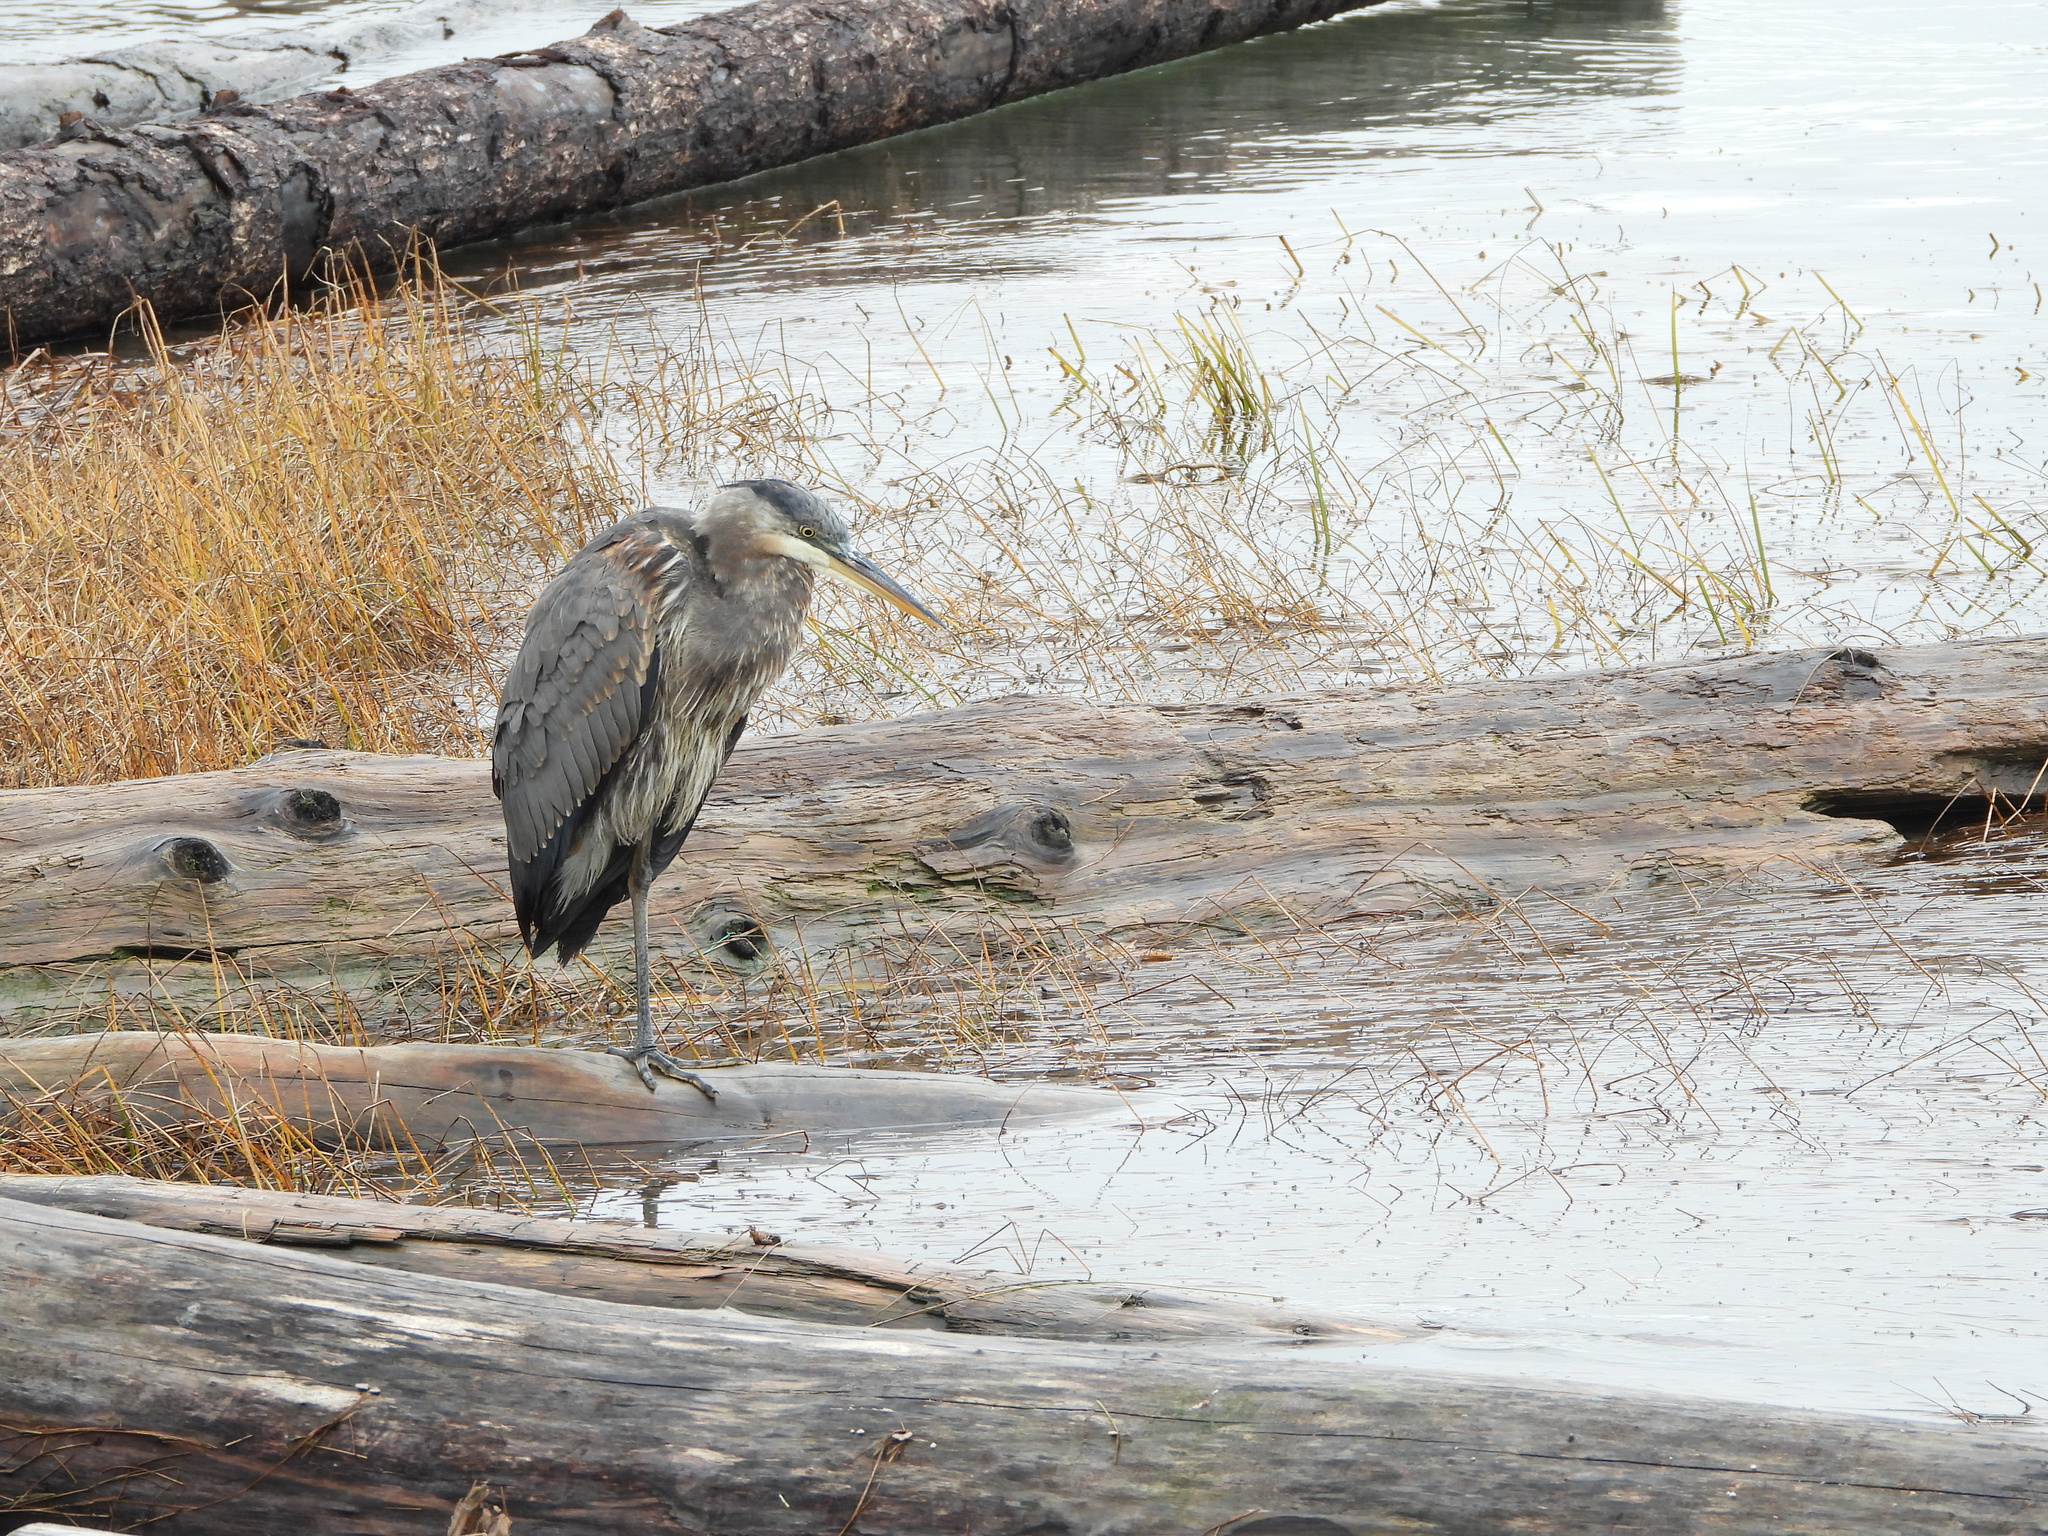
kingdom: Animalia
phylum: Chordata
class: Aves
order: Pelecaniformes
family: Ardeidae
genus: Ardea
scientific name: Ardea herodias
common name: Great blue heron
